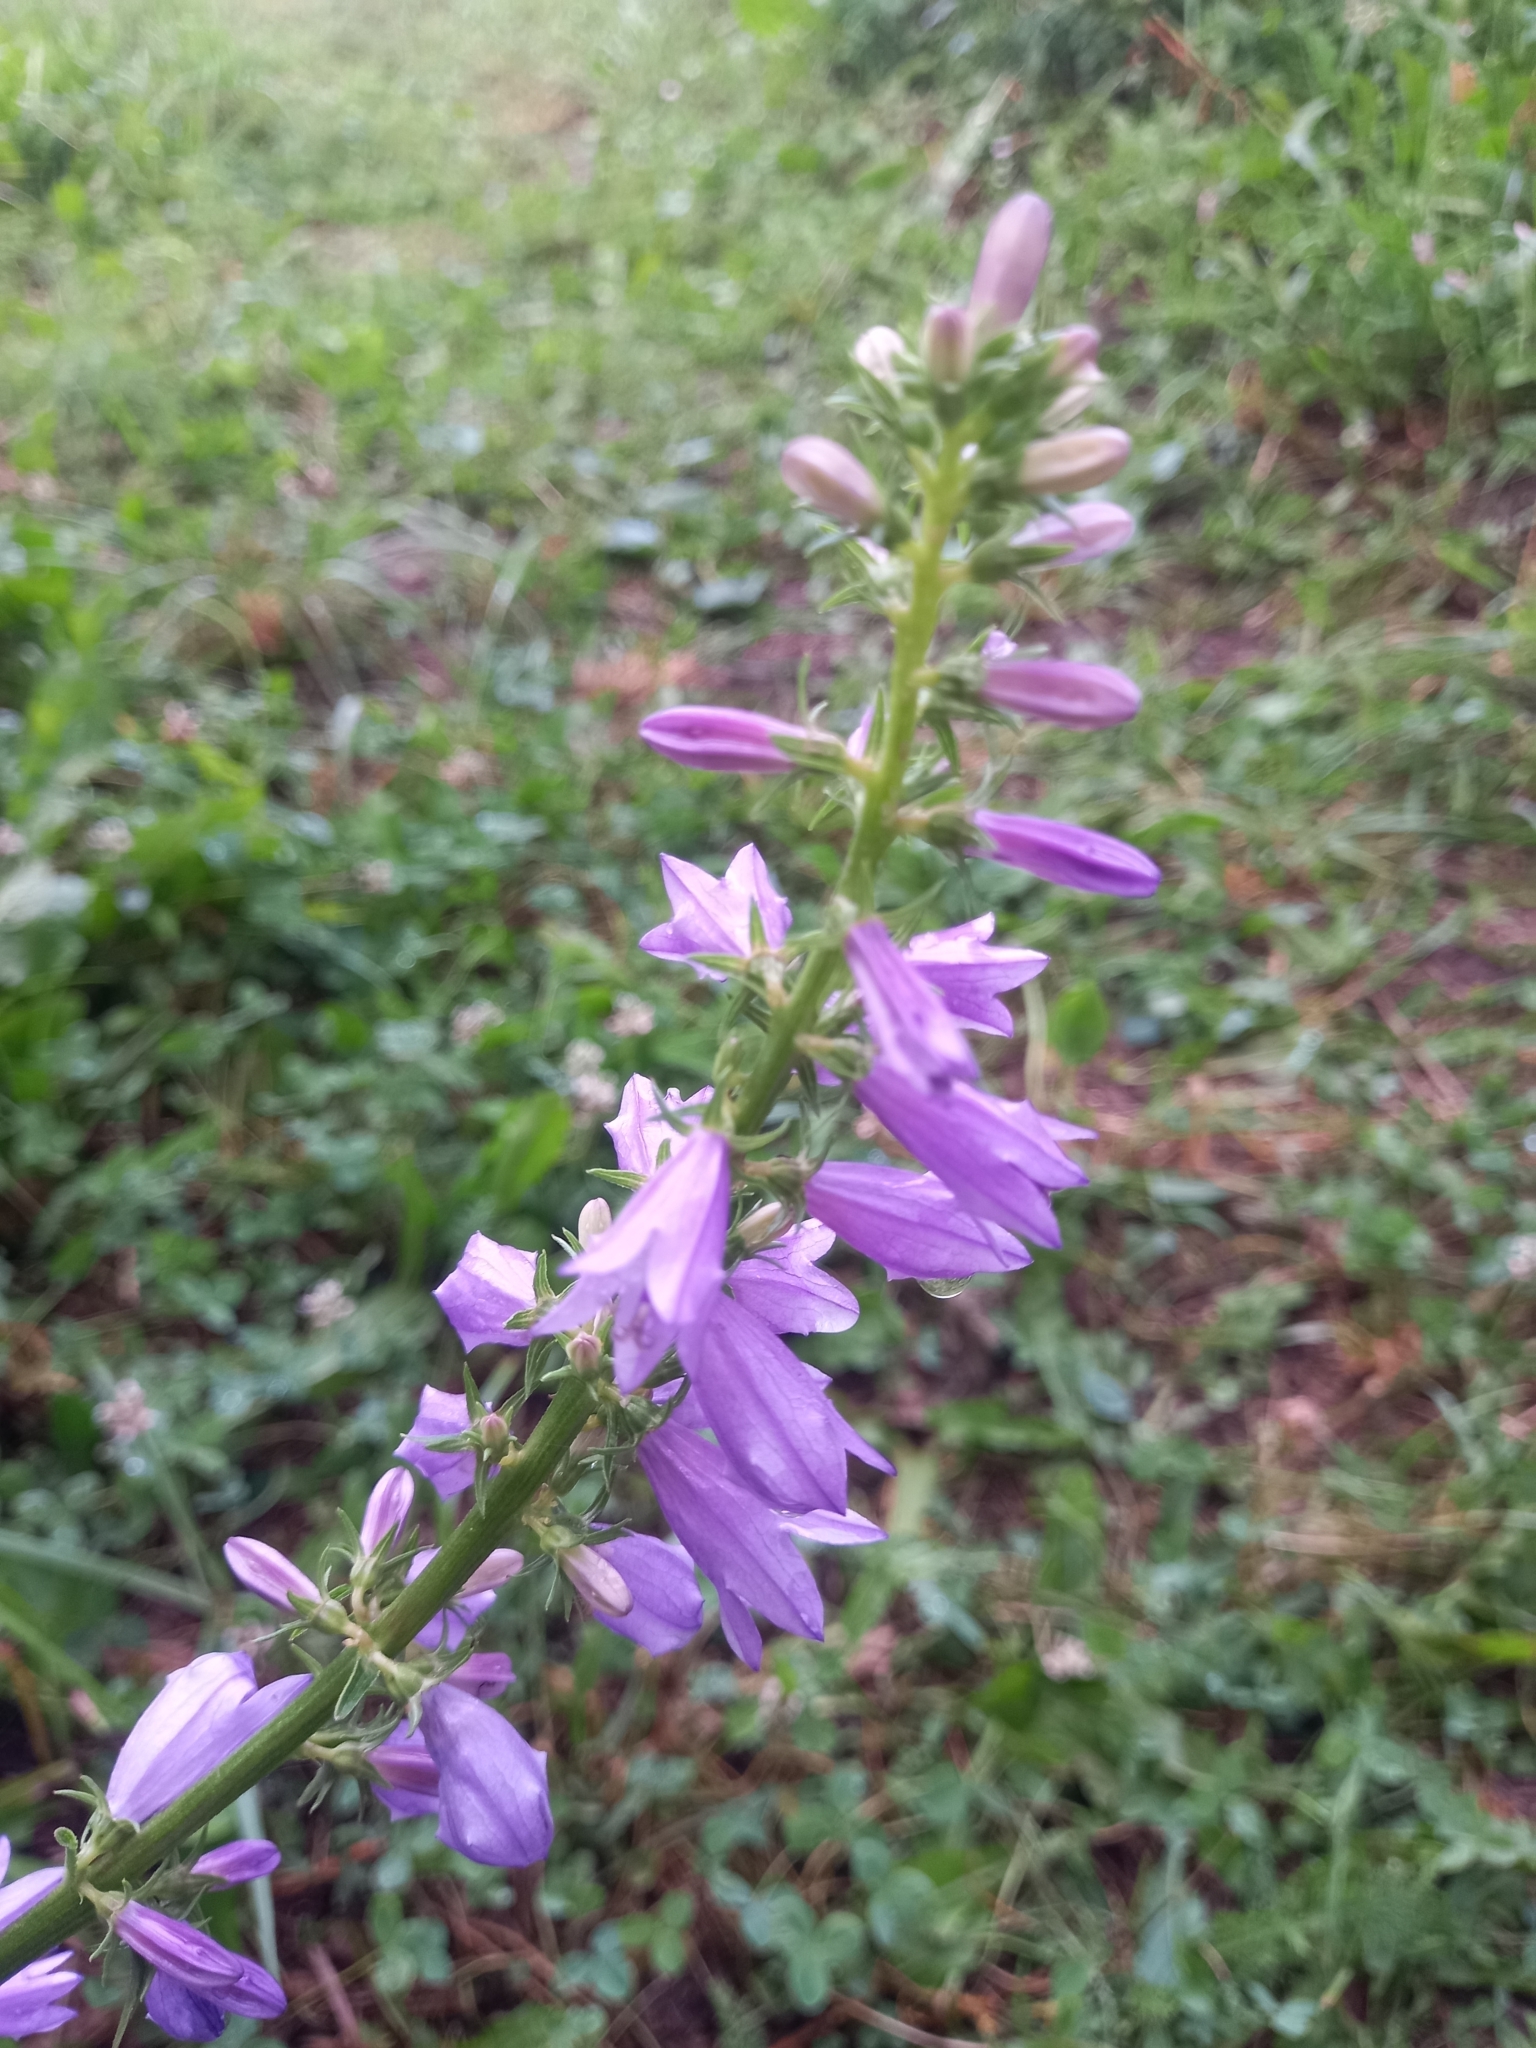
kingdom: Plantae
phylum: Tracheophyta
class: Magnoliopsida
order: Asterales
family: Campanulaceae
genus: Campanula
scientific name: Campanula bononiensis
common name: Pale bellflower
